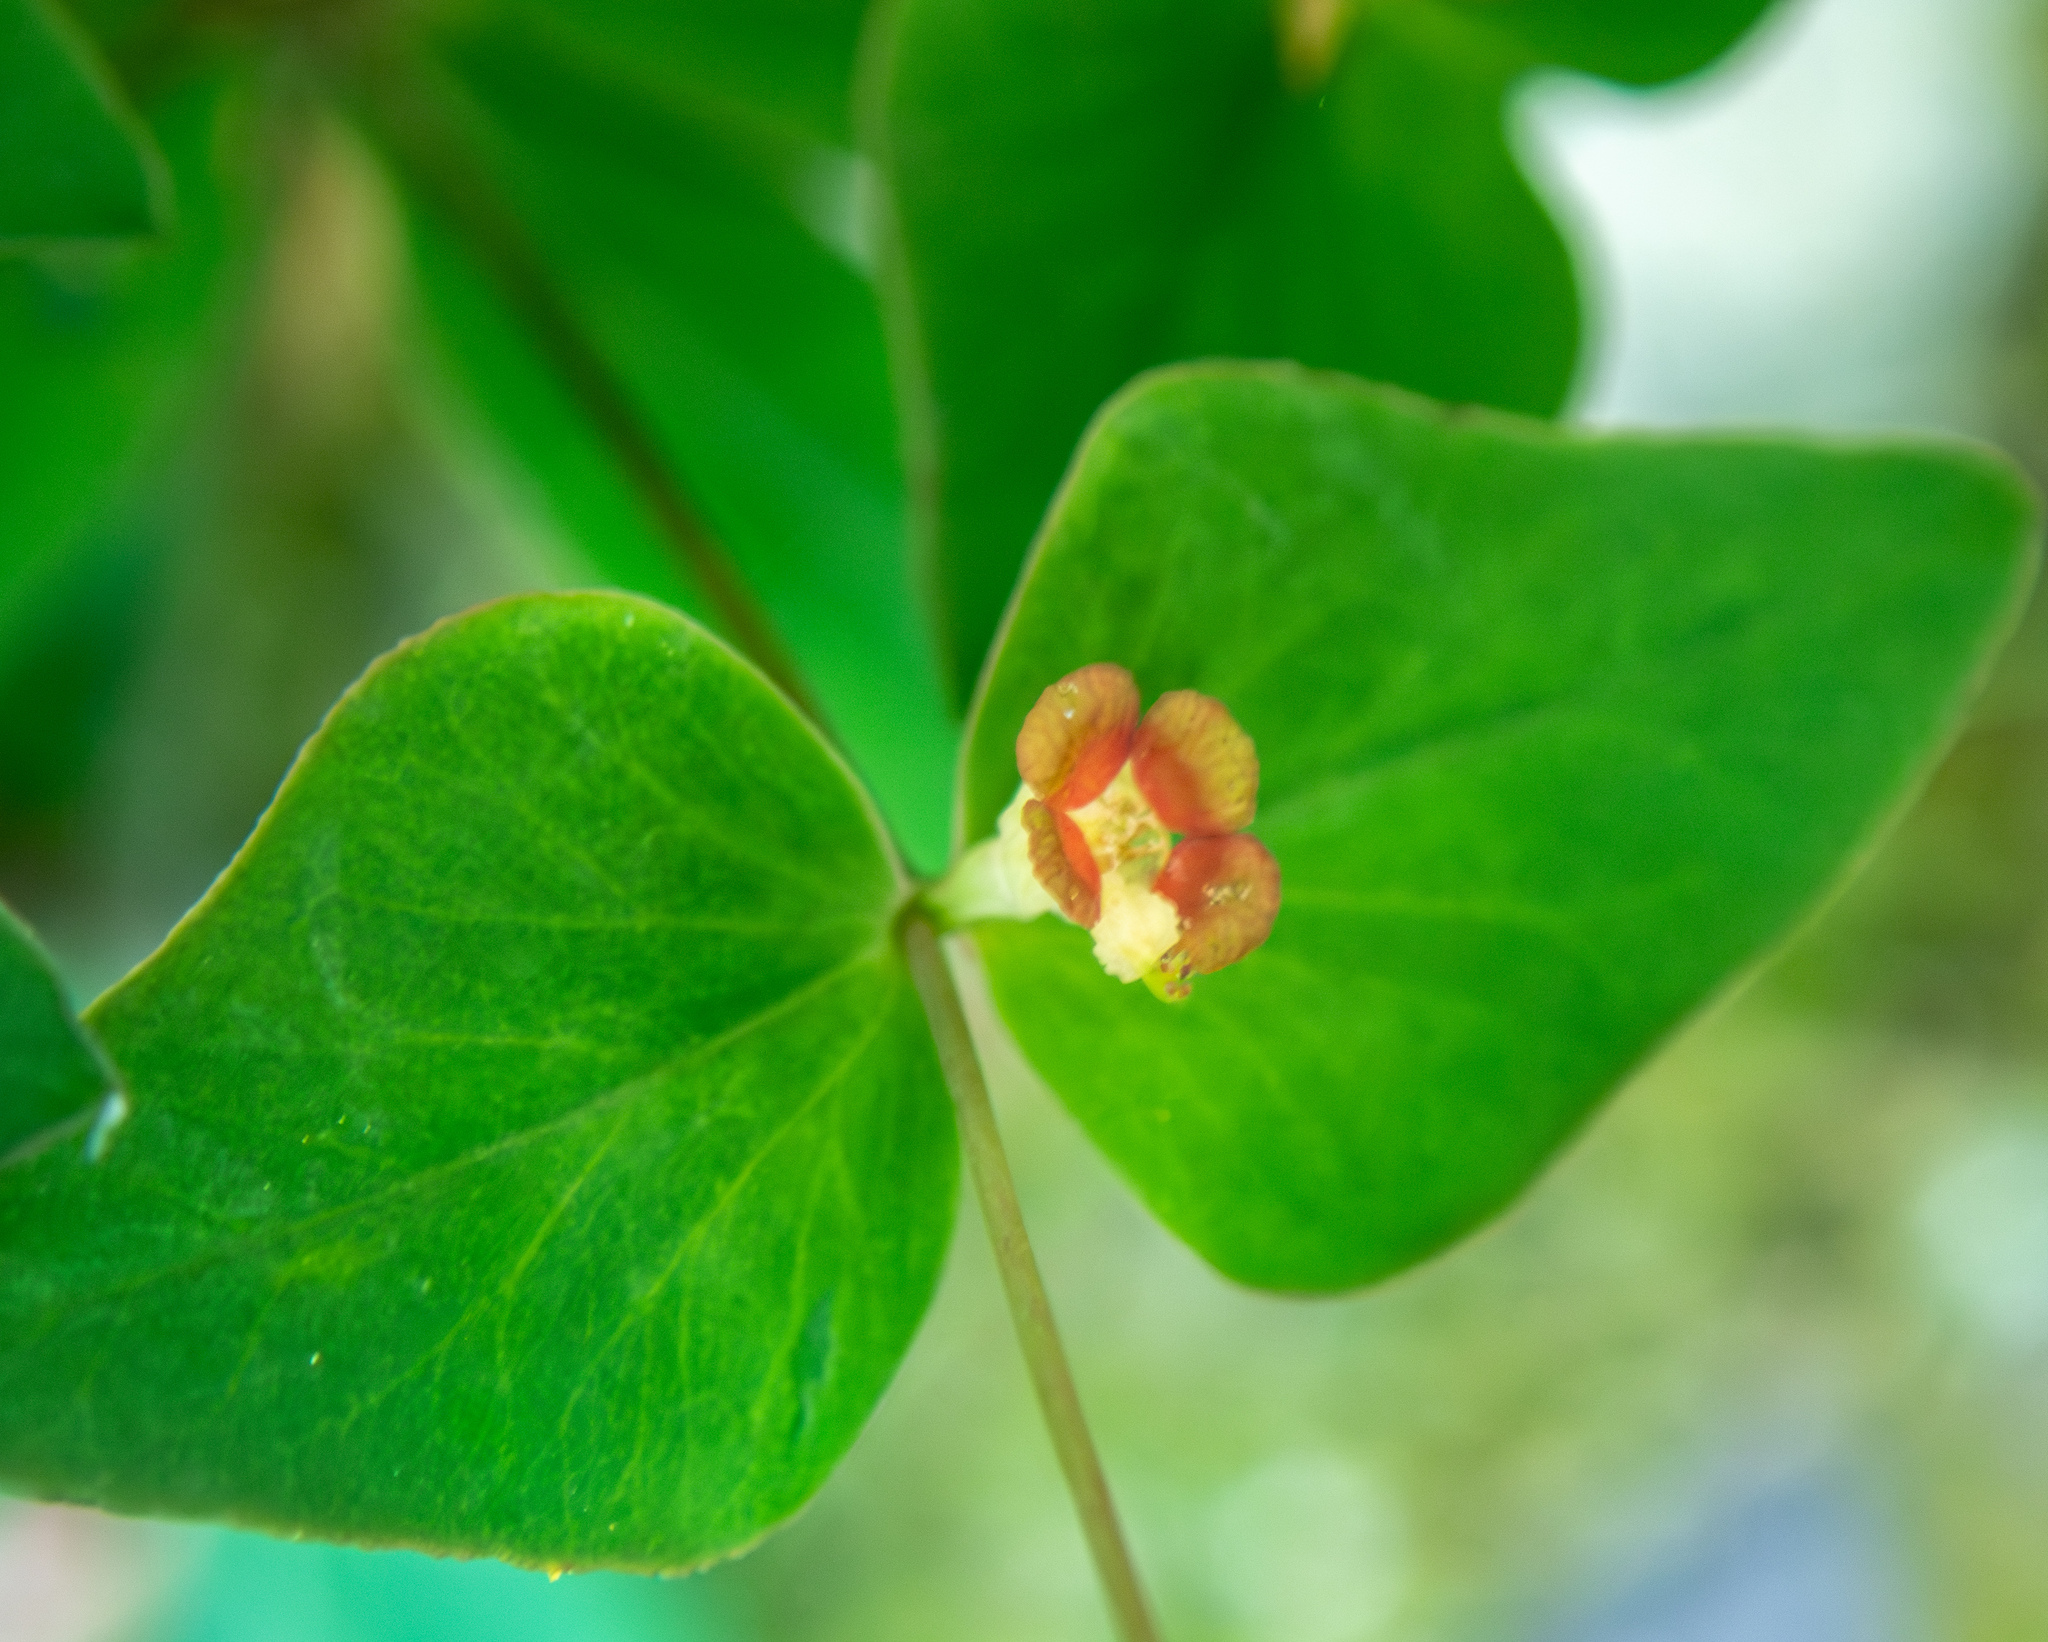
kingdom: Plantae
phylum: Tracheophyta
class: Magnoliopsida
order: Malpighiales
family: Euphorbiaceae
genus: Euphorbia
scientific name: Euphorbia dulcis
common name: Sweet spurge
